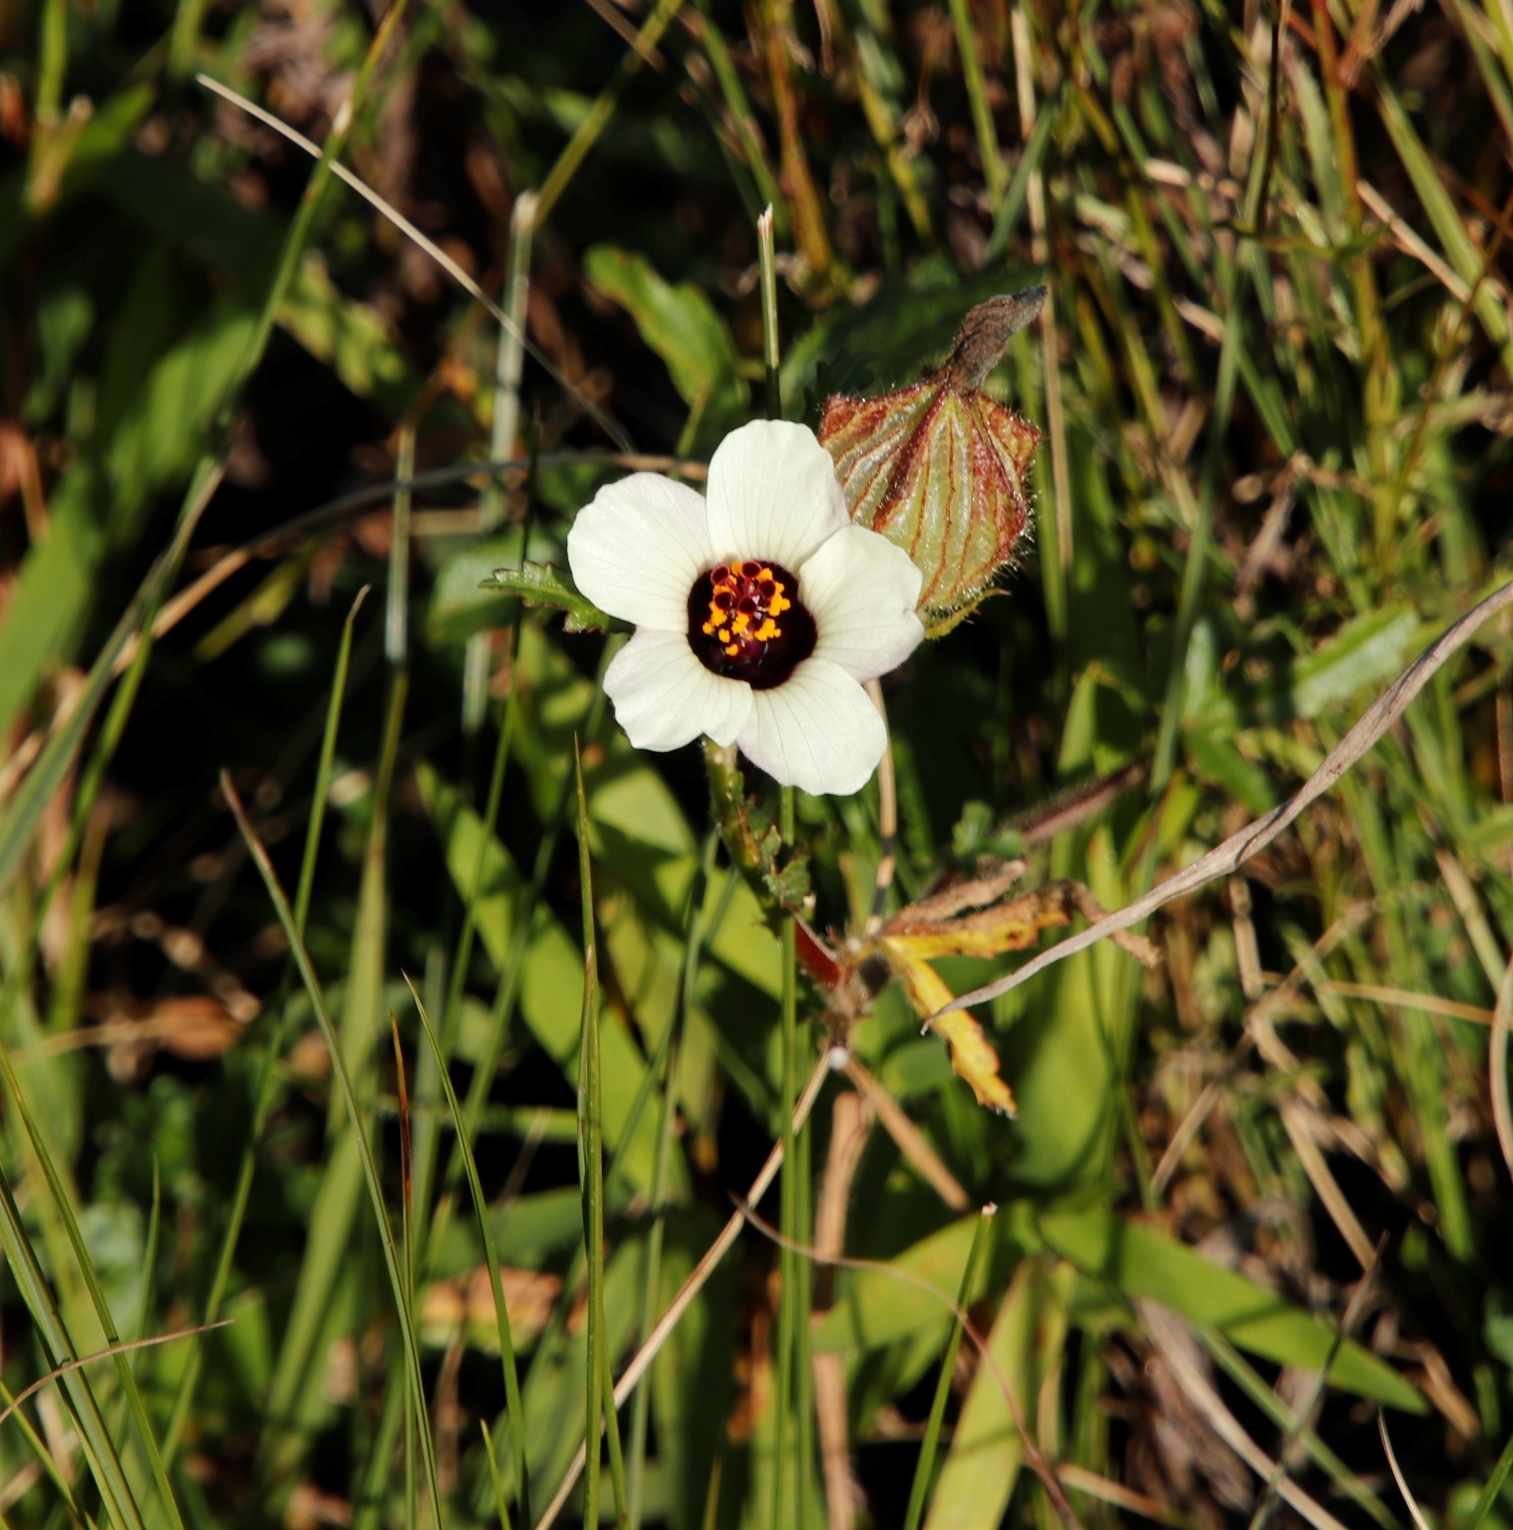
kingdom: Plantae
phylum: Tracheophyta
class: Magnoliopsida
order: Malvales
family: Malvaceae
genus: Hibiscus
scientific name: Hibiscus trionum
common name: Bladder ketmia
